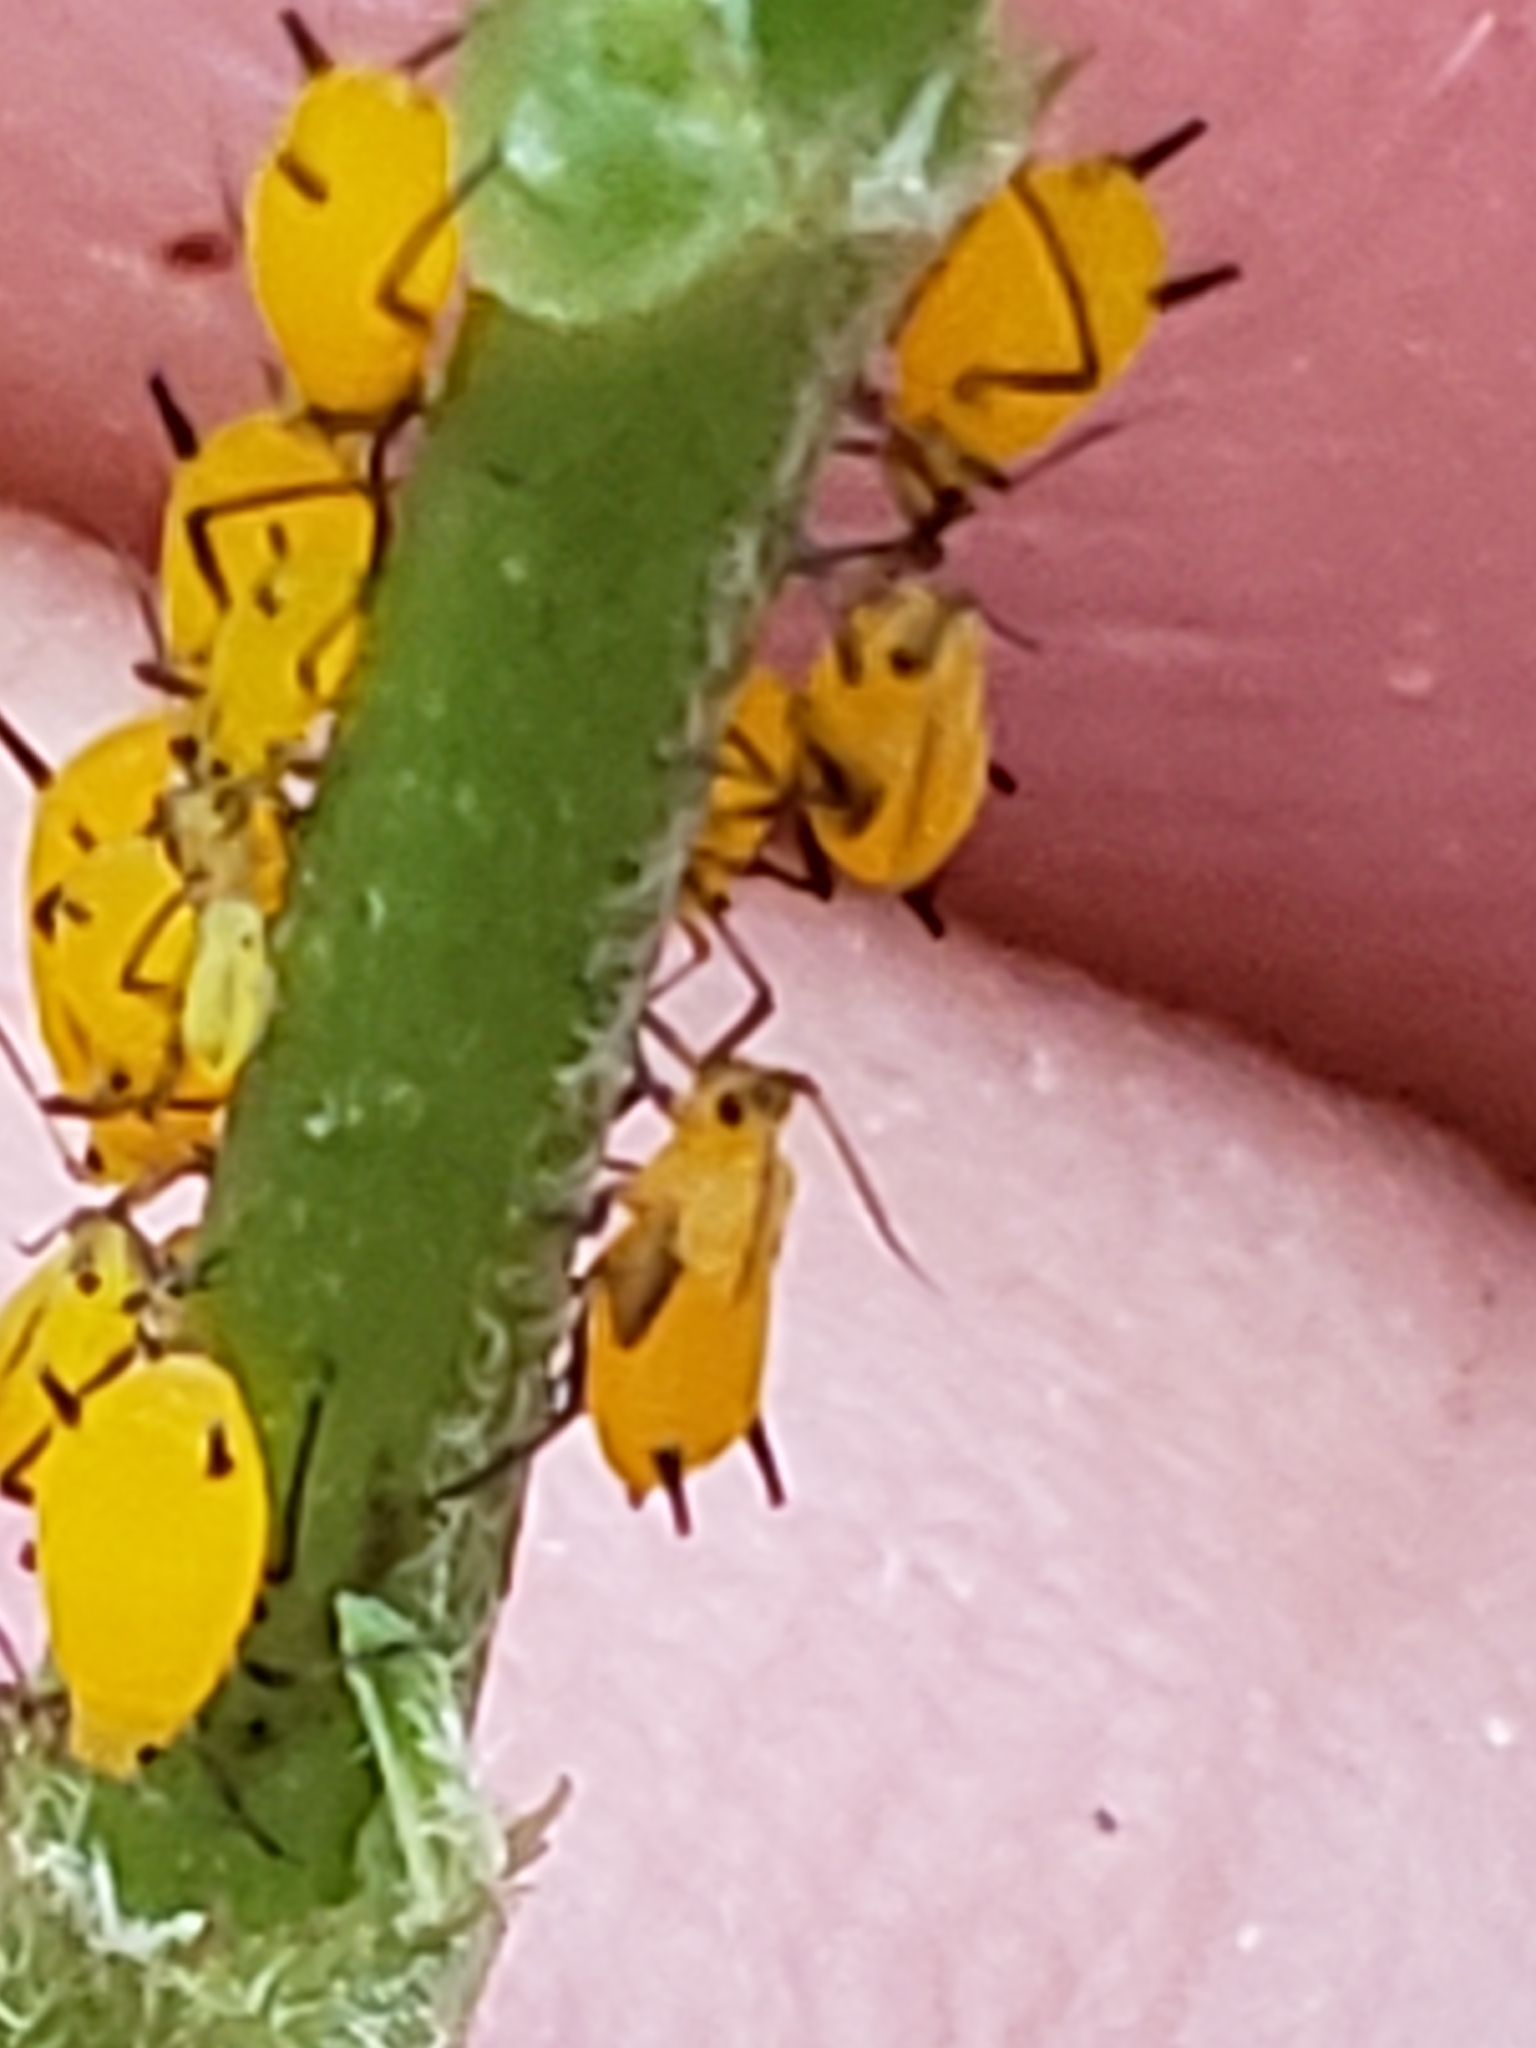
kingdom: Animalia
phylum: Arthropoda
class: Insecta
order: Hemiptera
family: Aphididae
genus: Aphis
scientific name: Aphis nerii
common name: Oleander aphid
